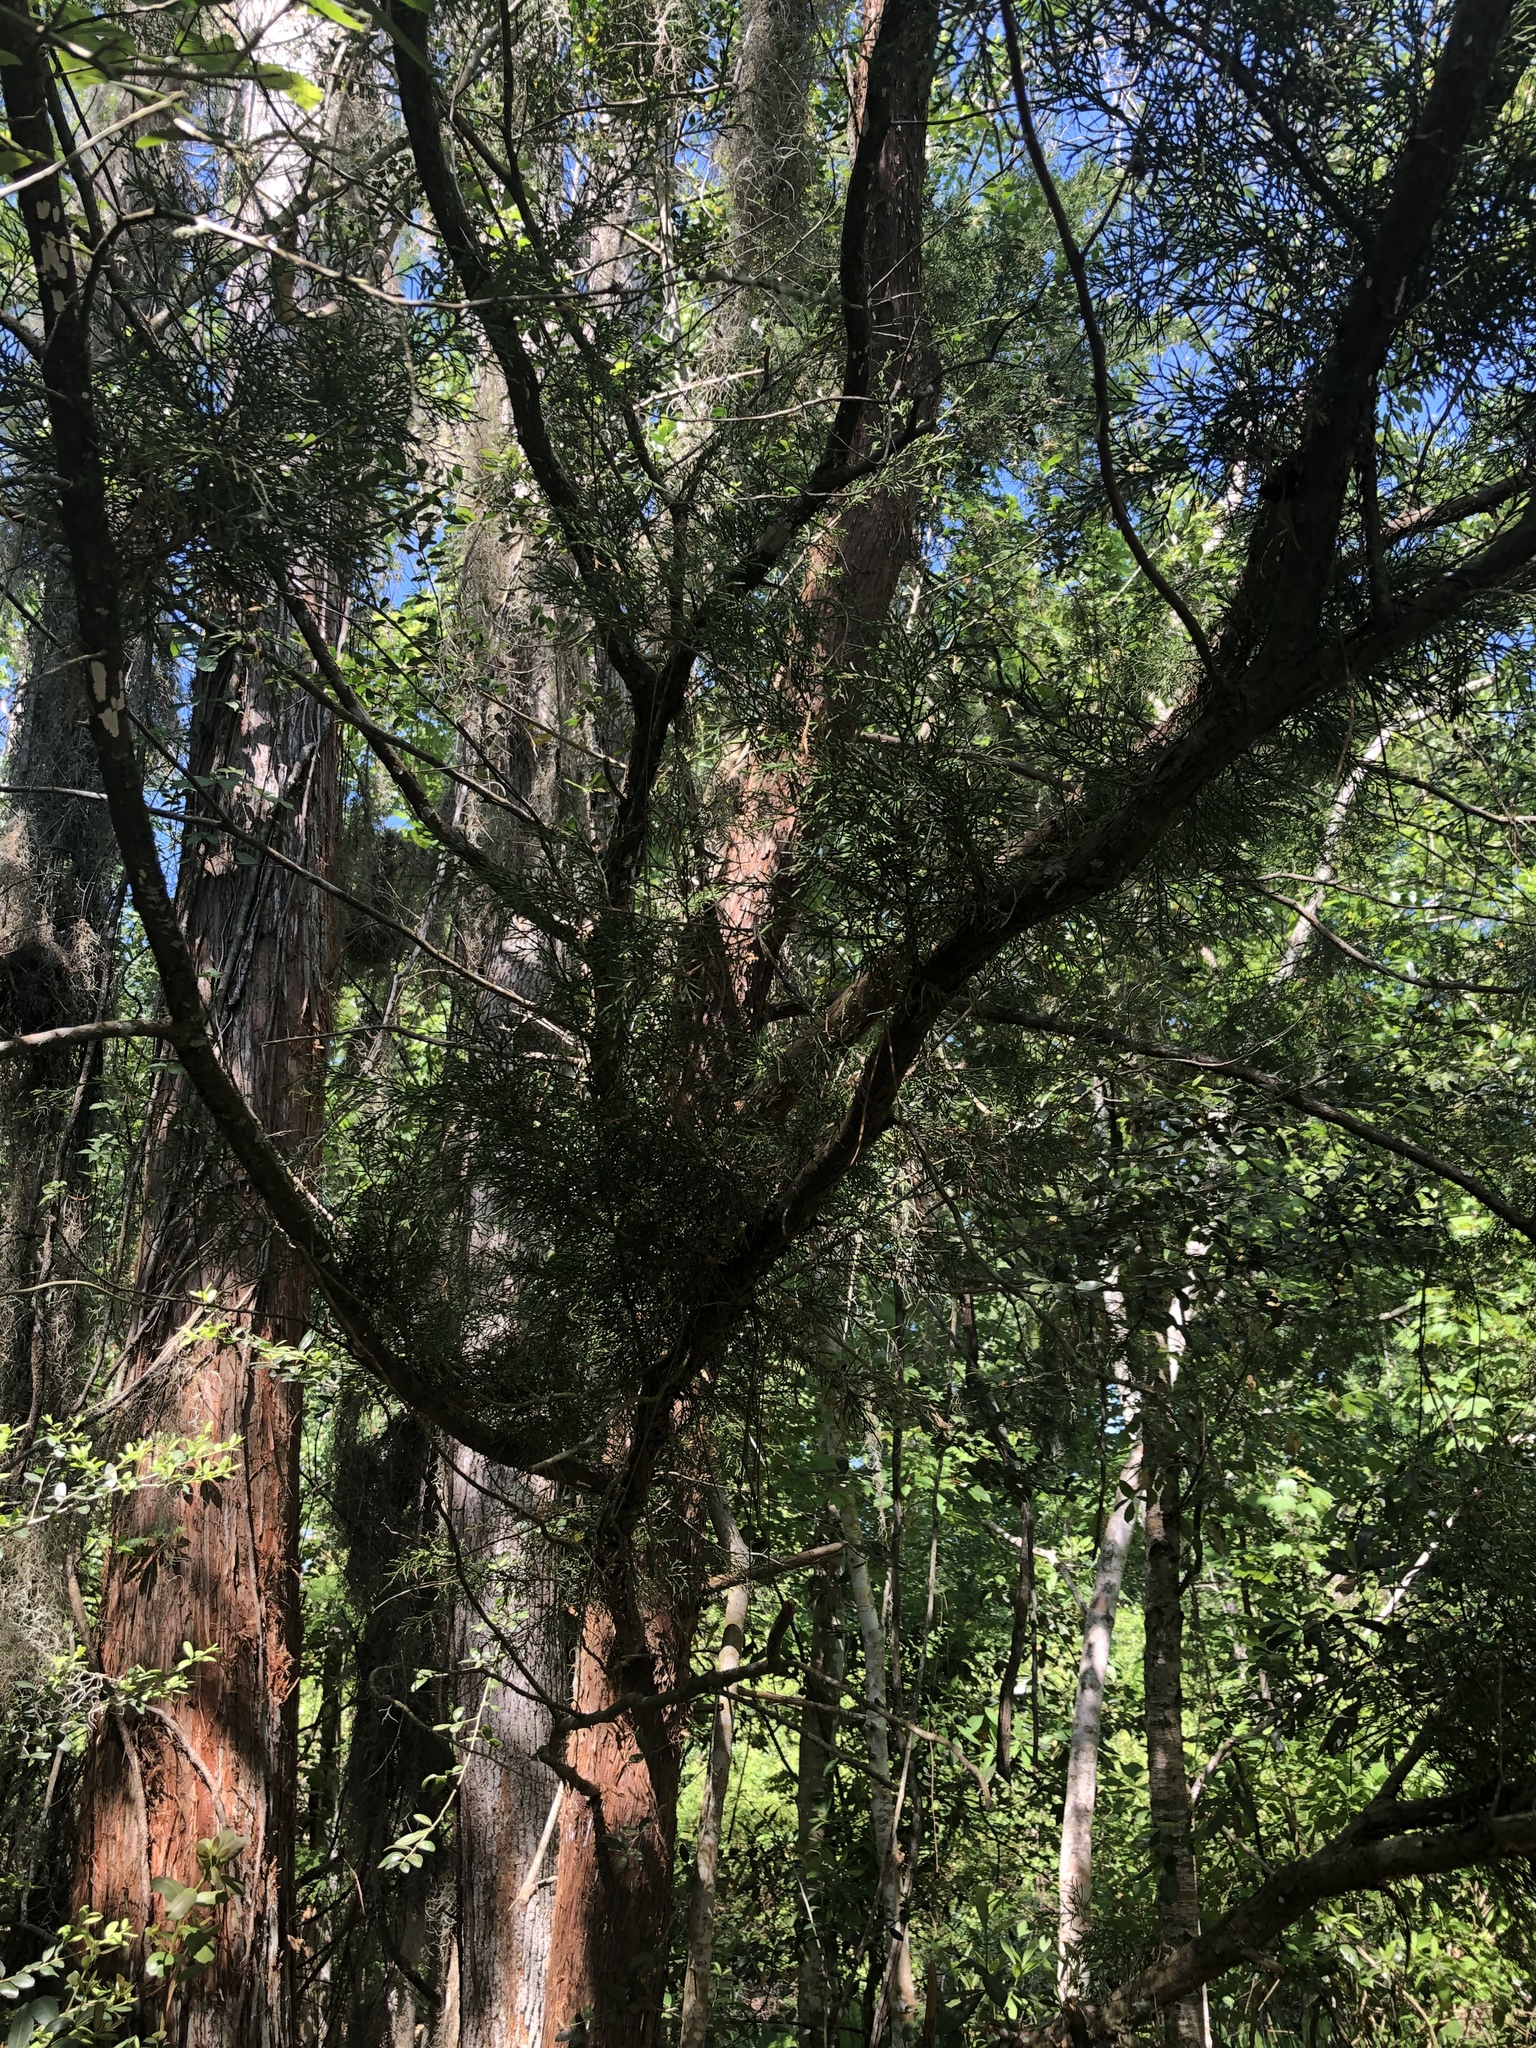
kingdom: Plantae
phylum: Tracheophyta
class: Pinopsida
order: Pinales
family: Cupressaceae
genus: Juniperus
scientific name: Juniperus virginiana
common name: Red juniper
